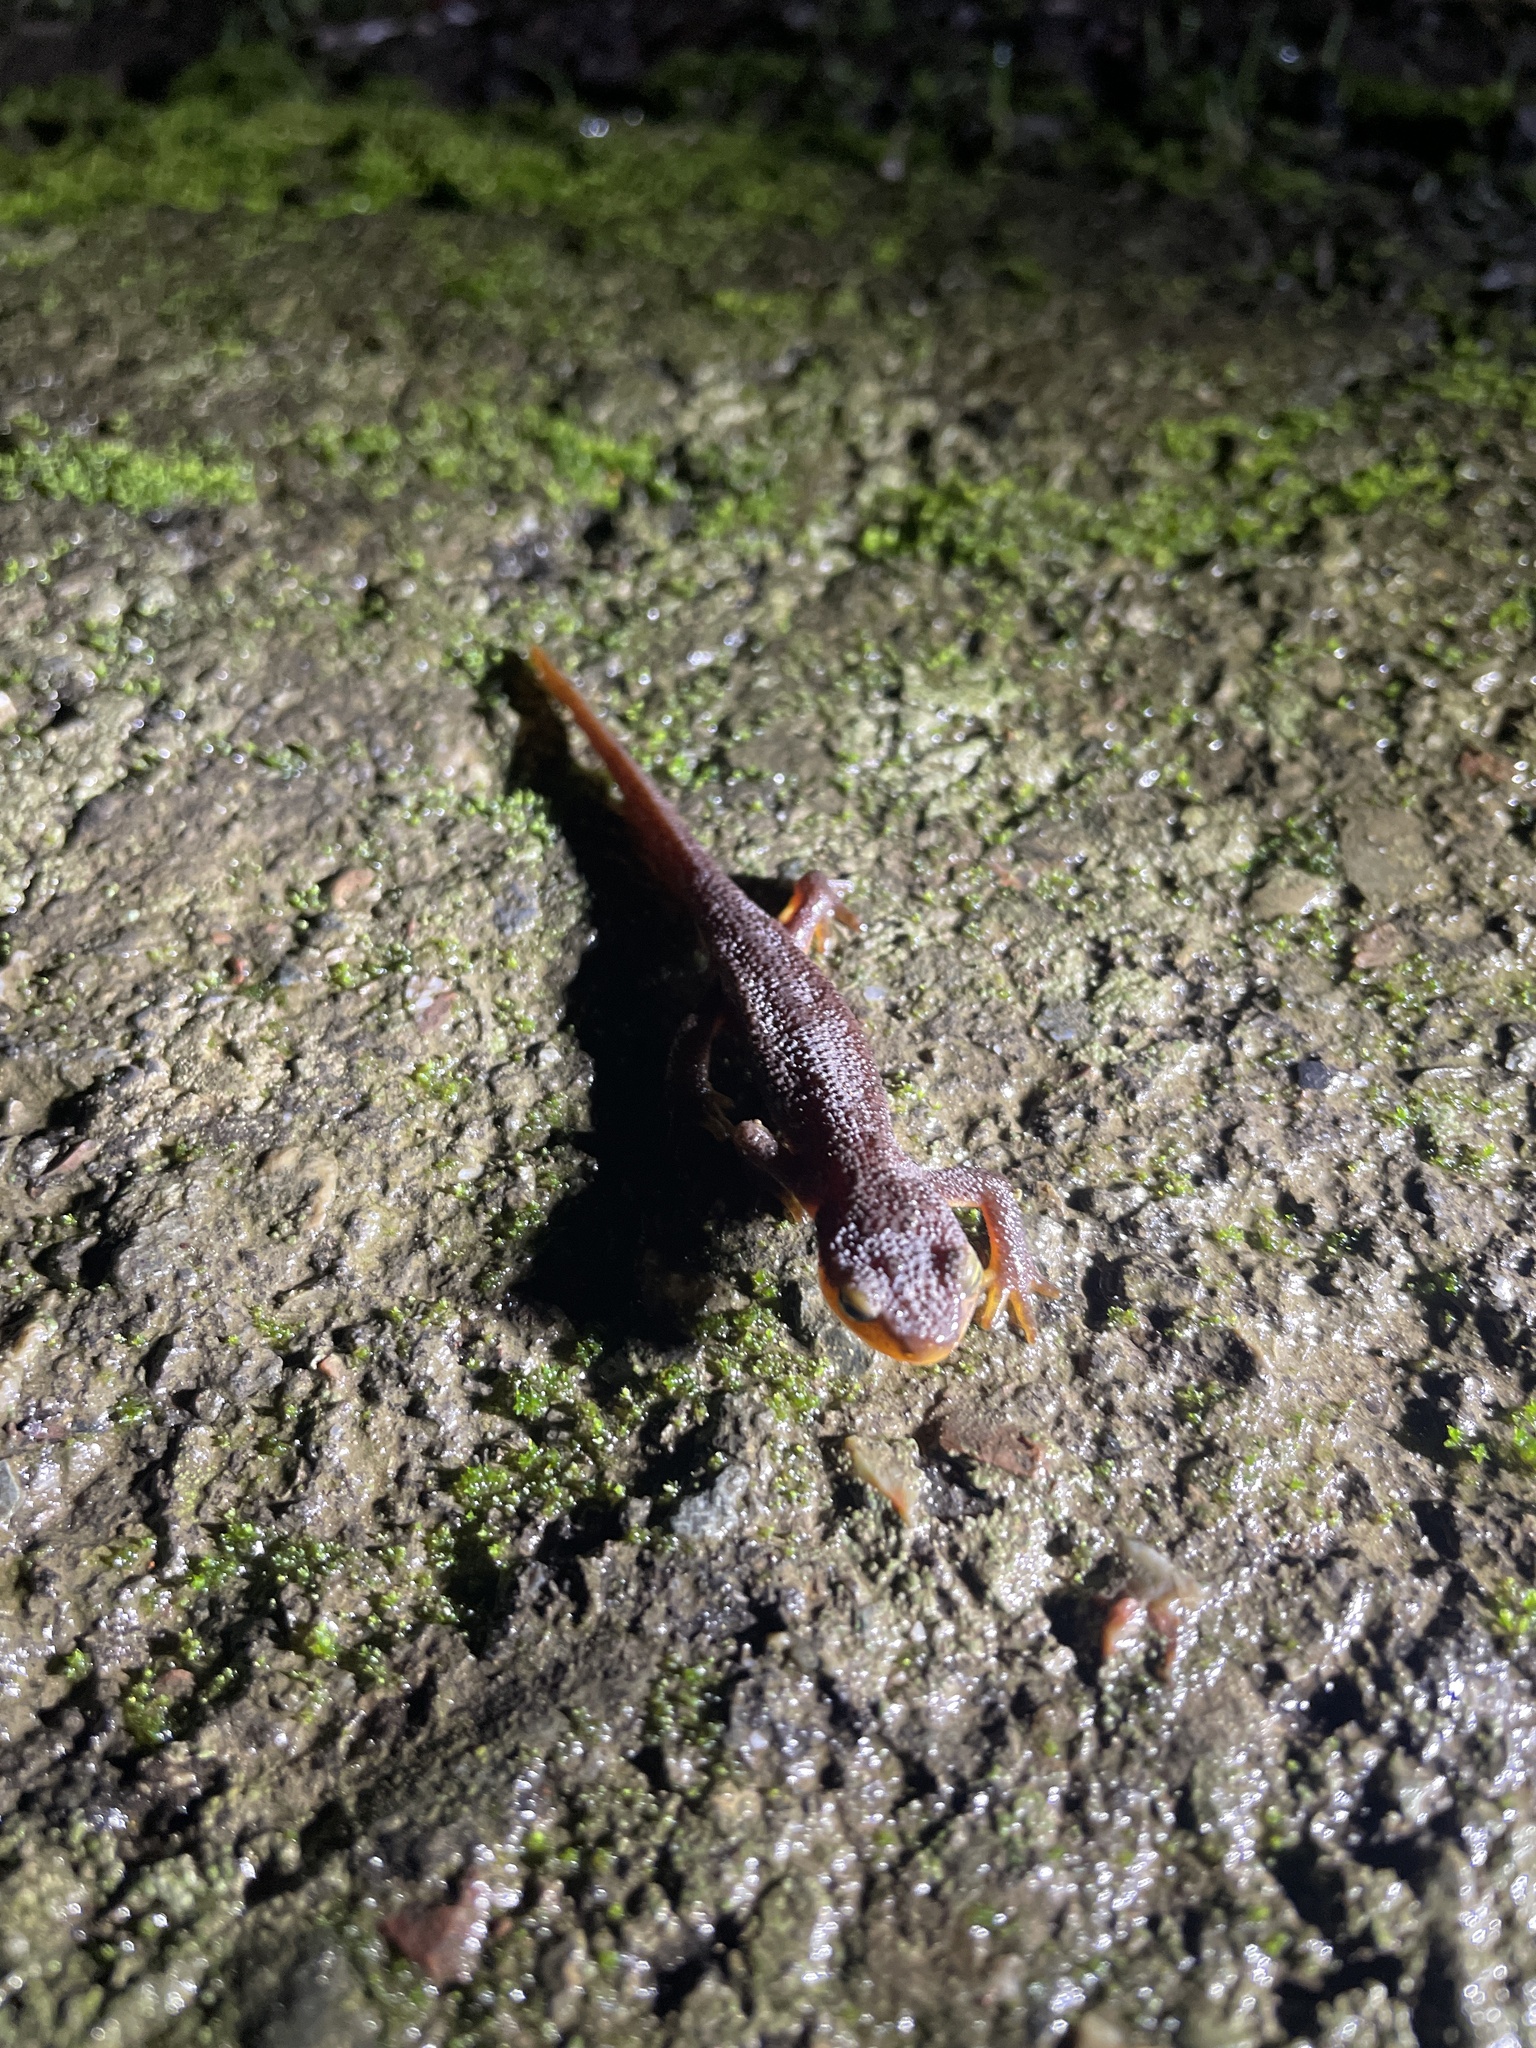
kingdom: Animalia
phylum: Chordata
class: Amphibia
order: Caudata
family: Salamandridae
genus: Taricha
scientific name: Taricha torosa
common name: California newt
